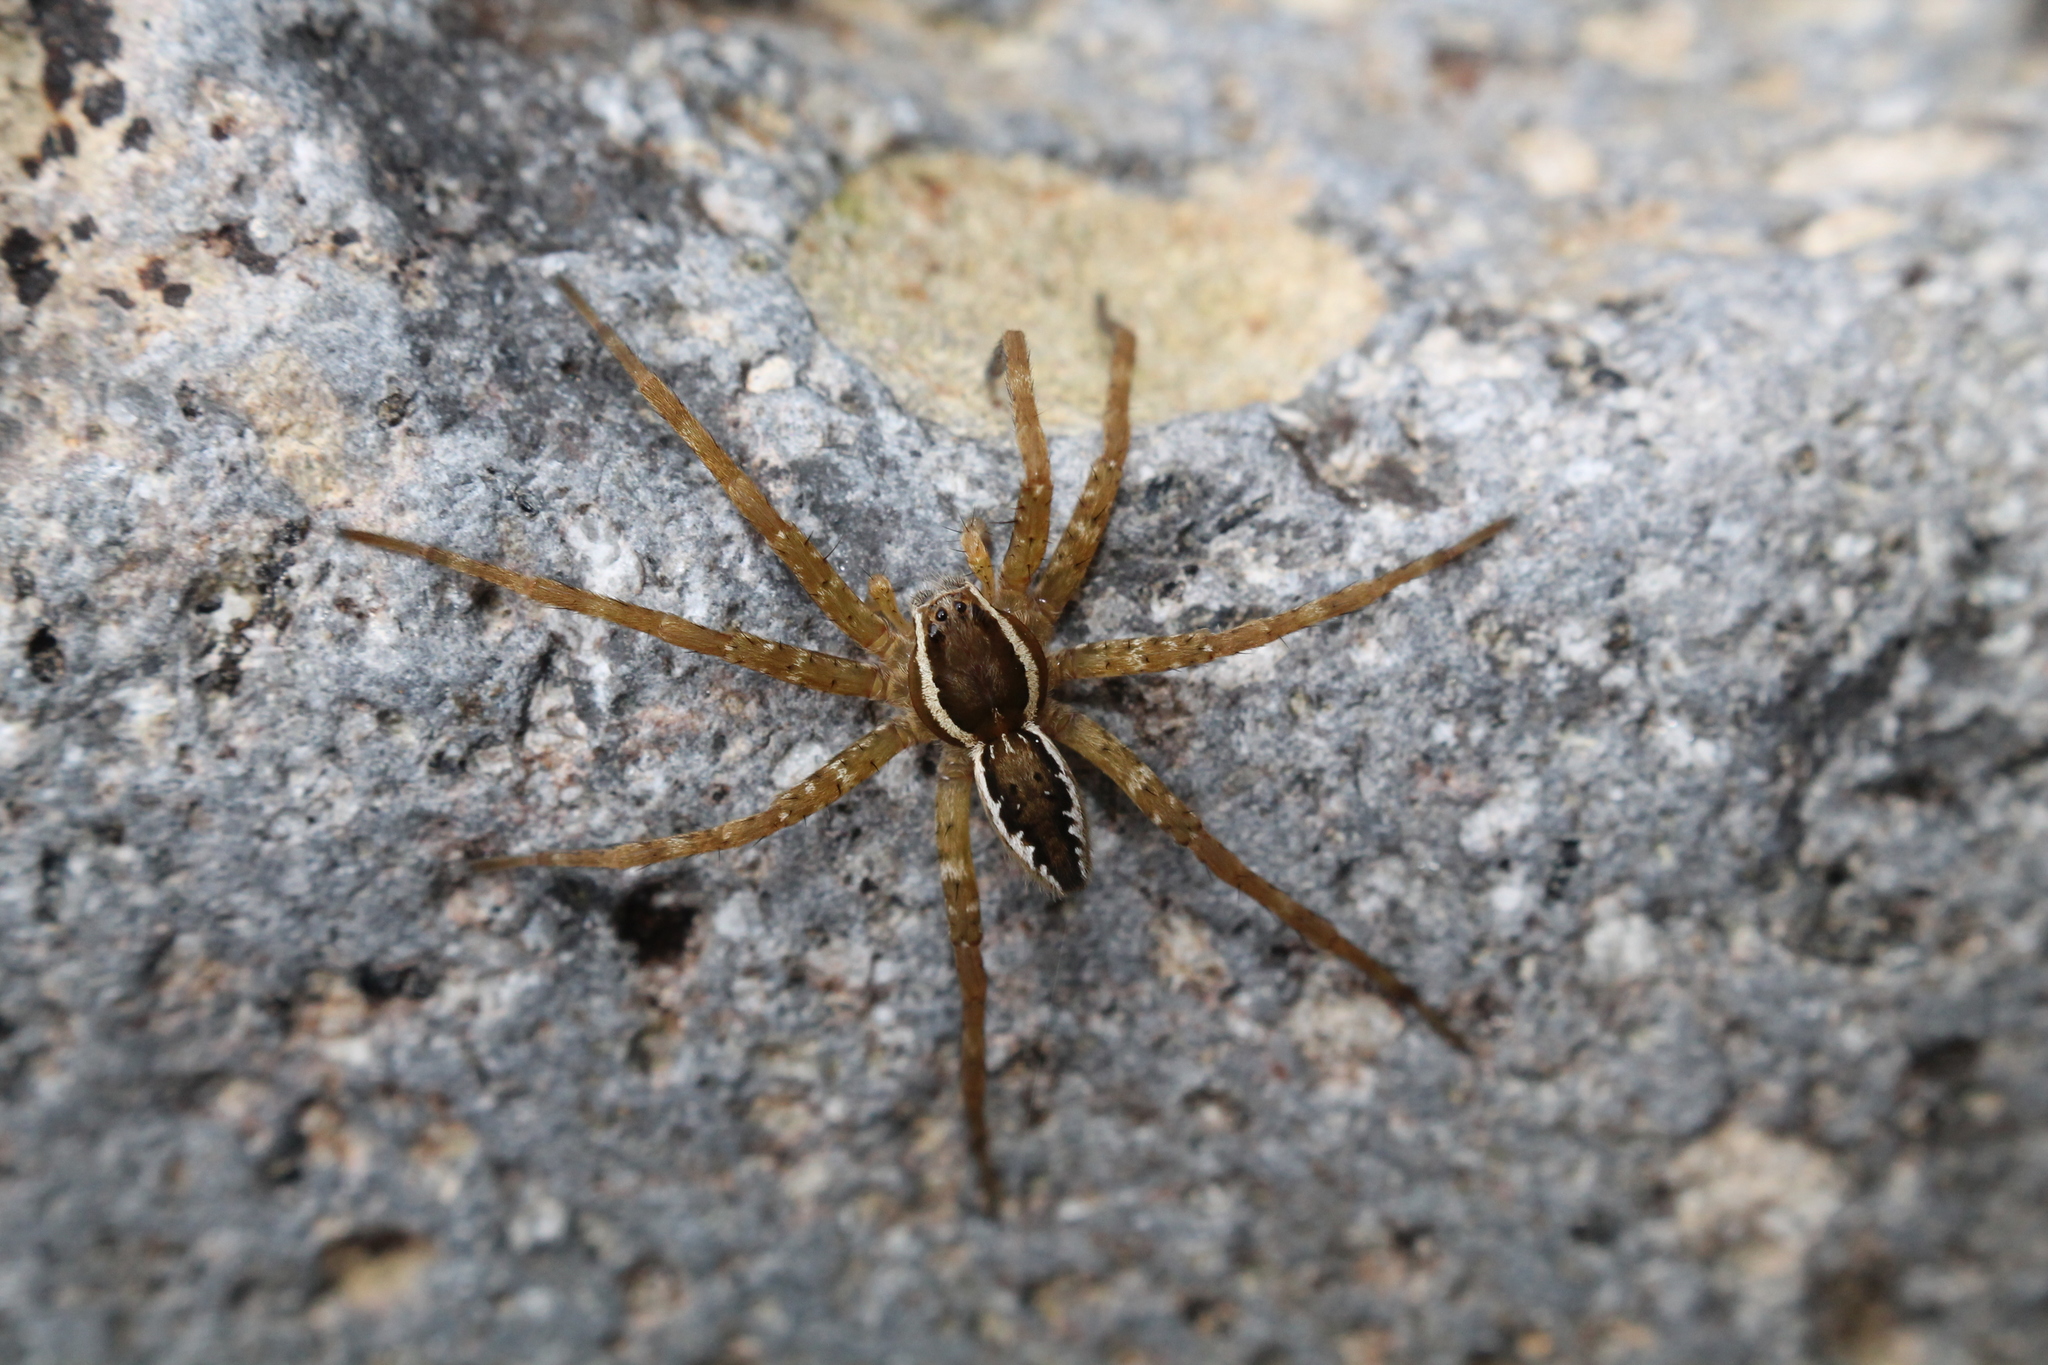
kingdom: Animalia
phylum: Arthropoda
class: Arachnida
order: Araneae
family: Pisauridae
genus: Dolomedes
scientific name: Dolomedes dondalei
